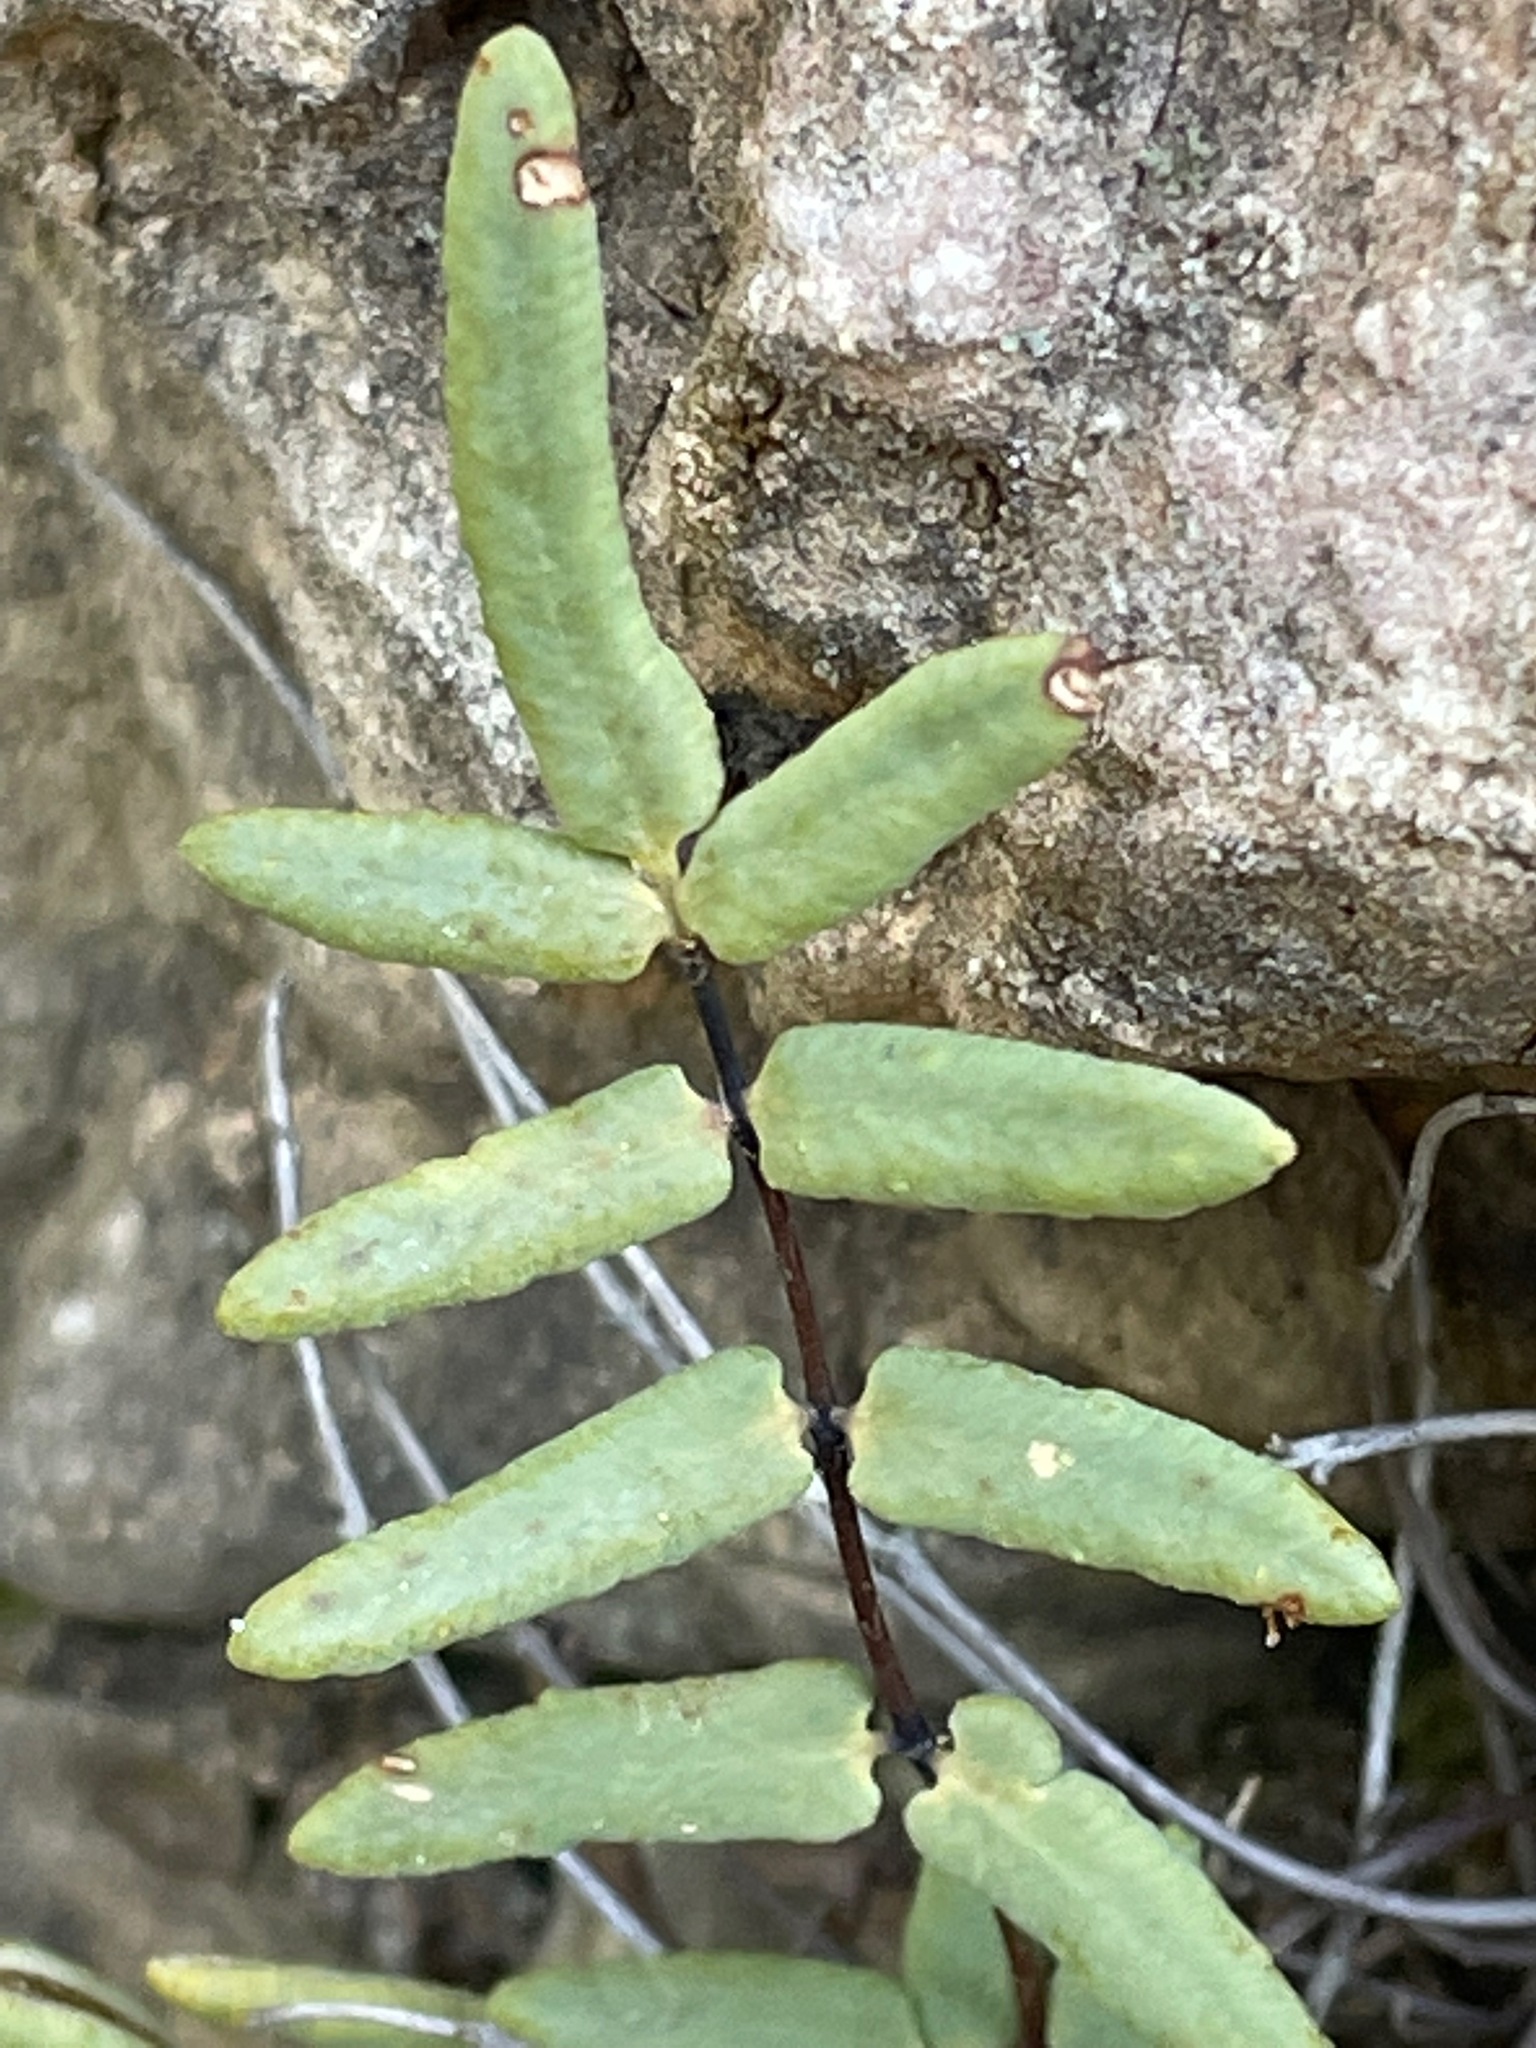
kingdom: Plantae
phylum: Tracheophyta
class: Polypodiopsida
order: Polypodiales
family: Pteridaceae
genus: Pellaea
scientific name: Pellaea glabella
